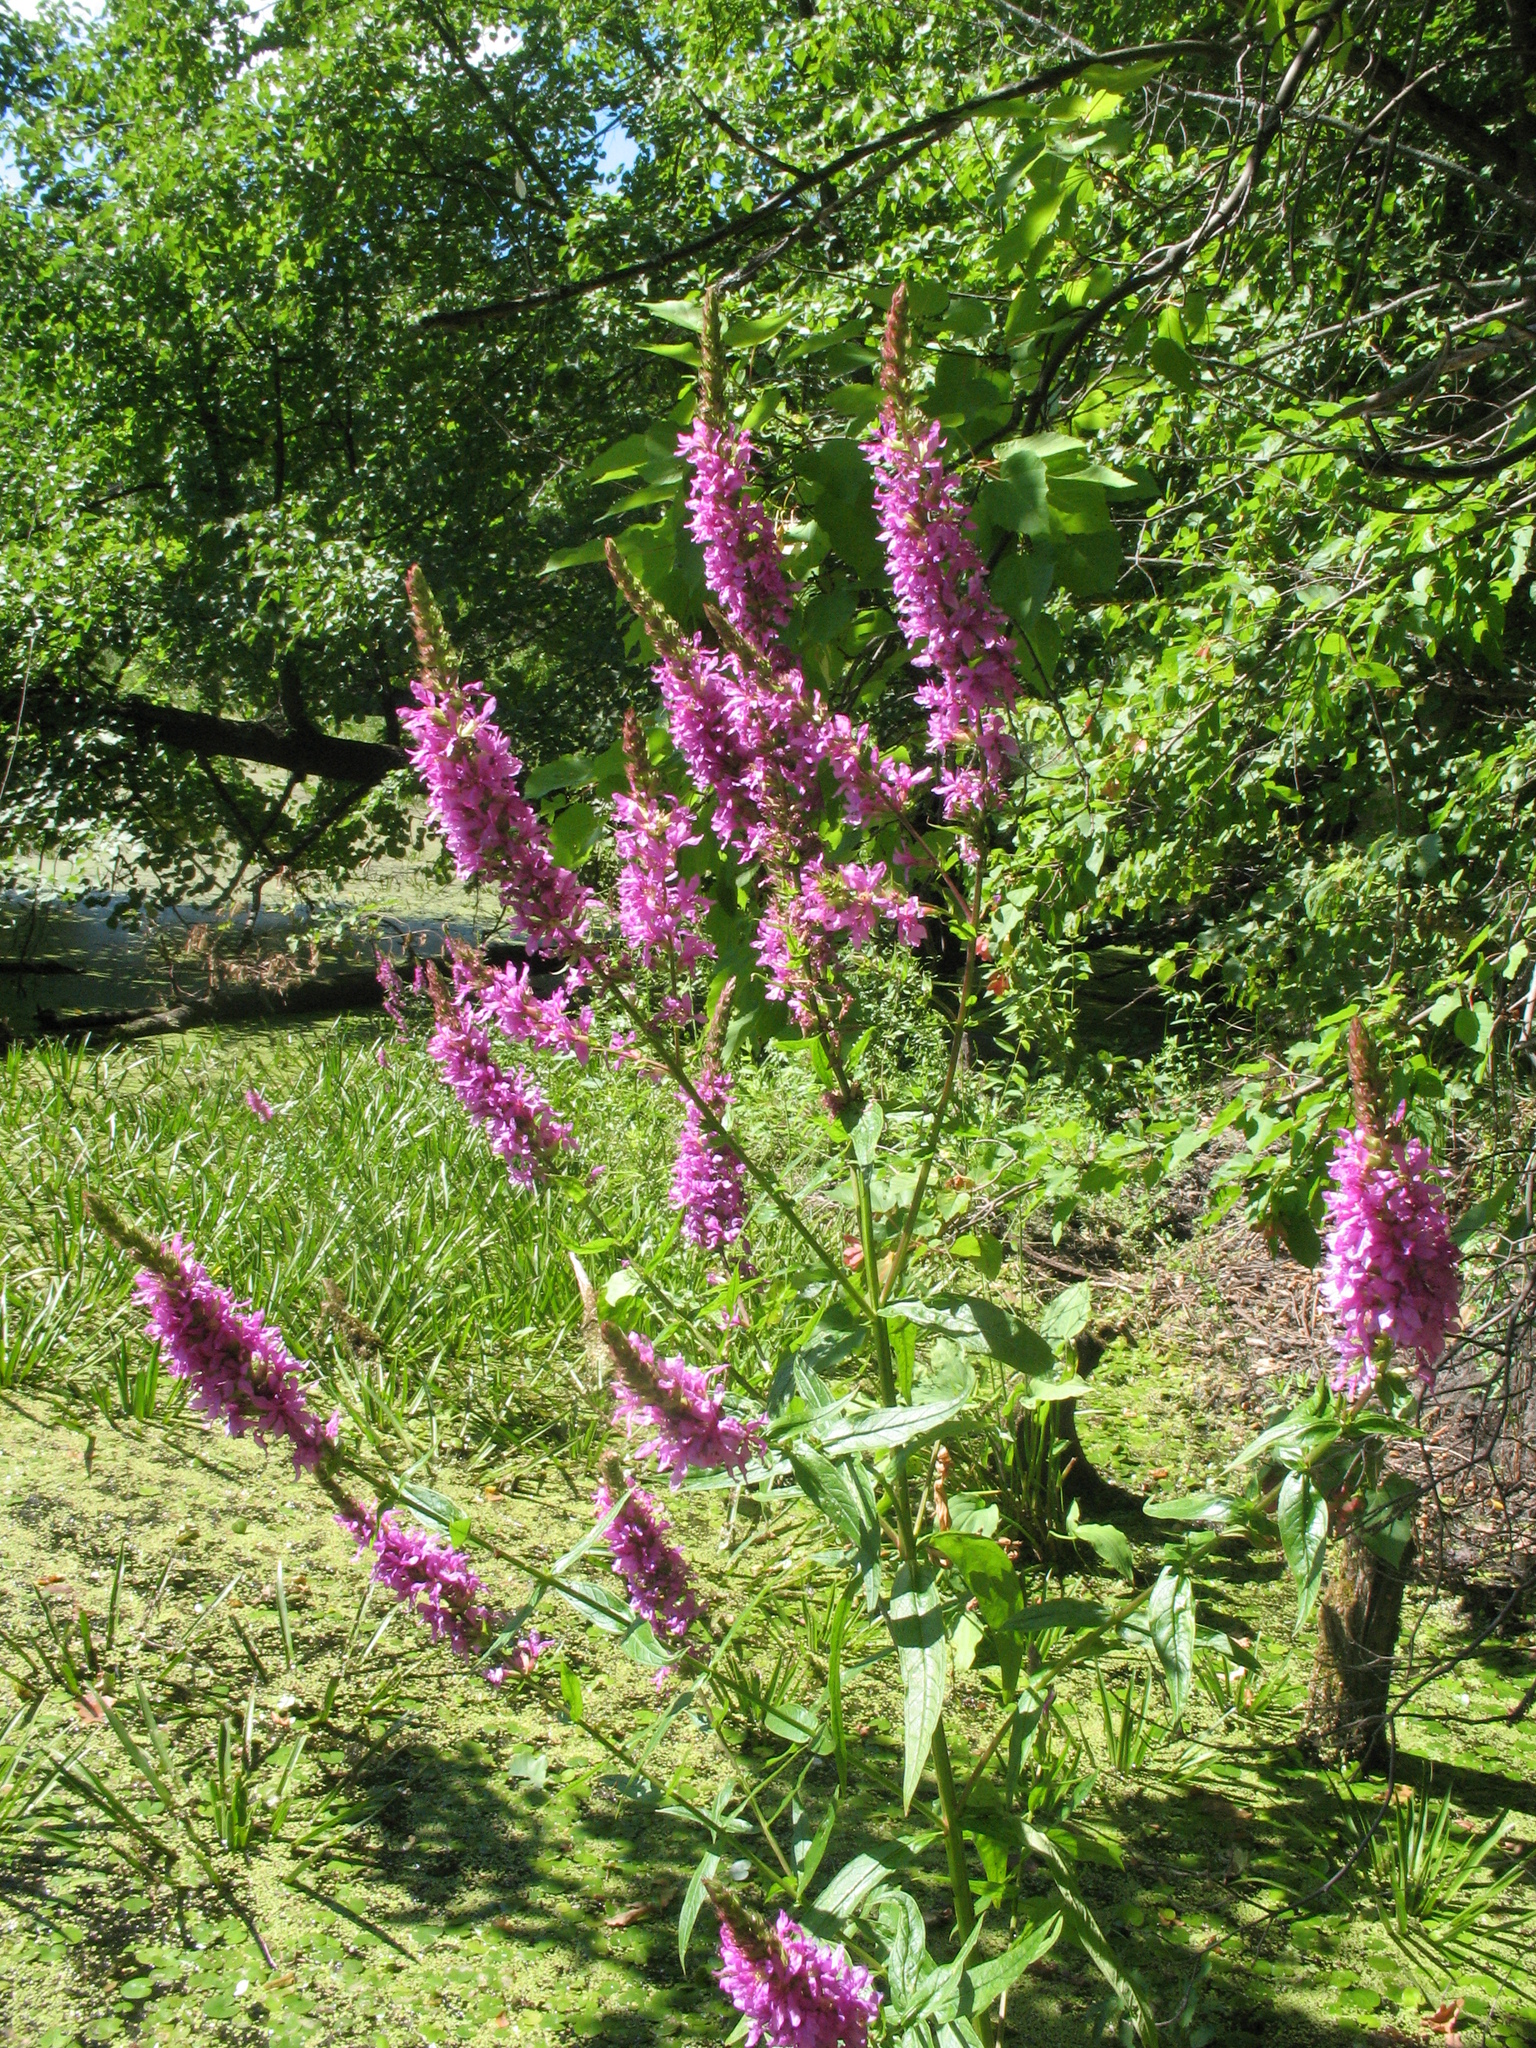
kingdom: Plantae
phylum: Tracheophyta
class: Magnoliopsida
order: Myrtales
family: Lythraceae
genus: Lythrum
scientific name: Lythrum salicaria
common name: Purple loosestrife
